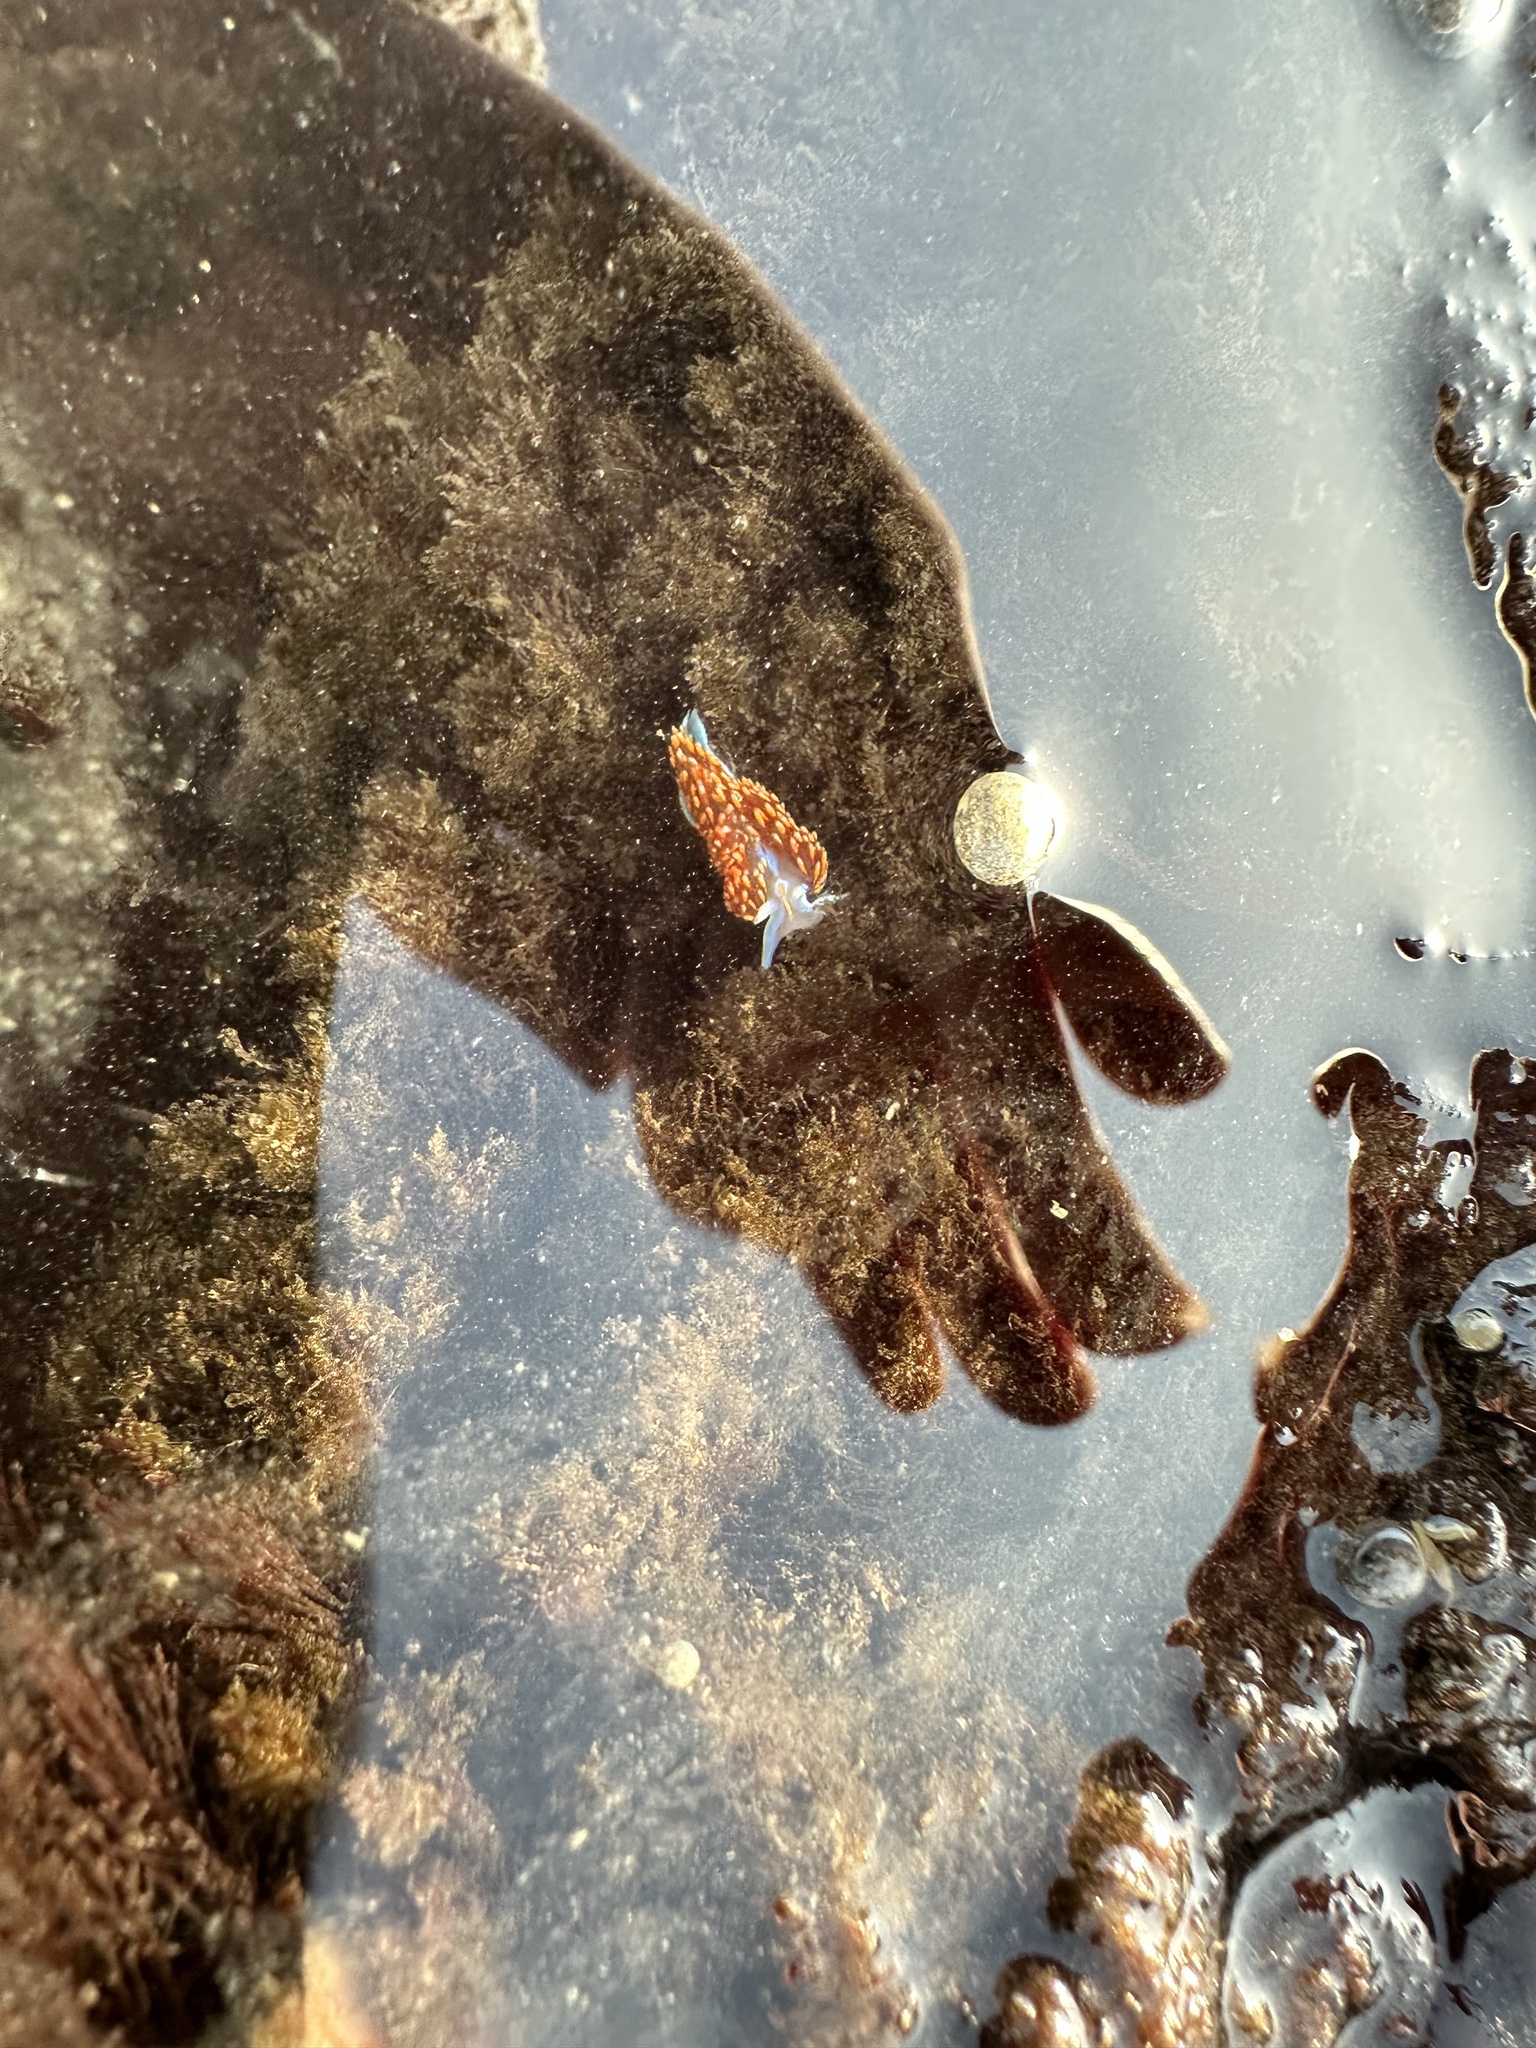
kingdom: Animalia
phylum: Mollusca
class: Gastropoda
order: Nudibranchia
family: Myrrhinidae
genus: Hermissenda
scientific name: Hermissenda opalescens
